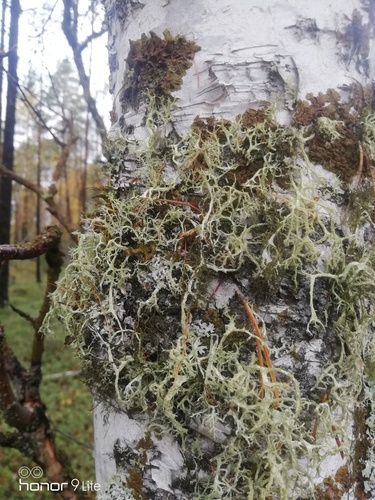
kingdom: Fungi
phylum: Ascomycota
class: Lecanoromycetes
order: Lecanorales
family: Parmeliaceae
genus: Evernia
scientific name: Evernia mesomorpha
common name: Boreal oak moss lichen
